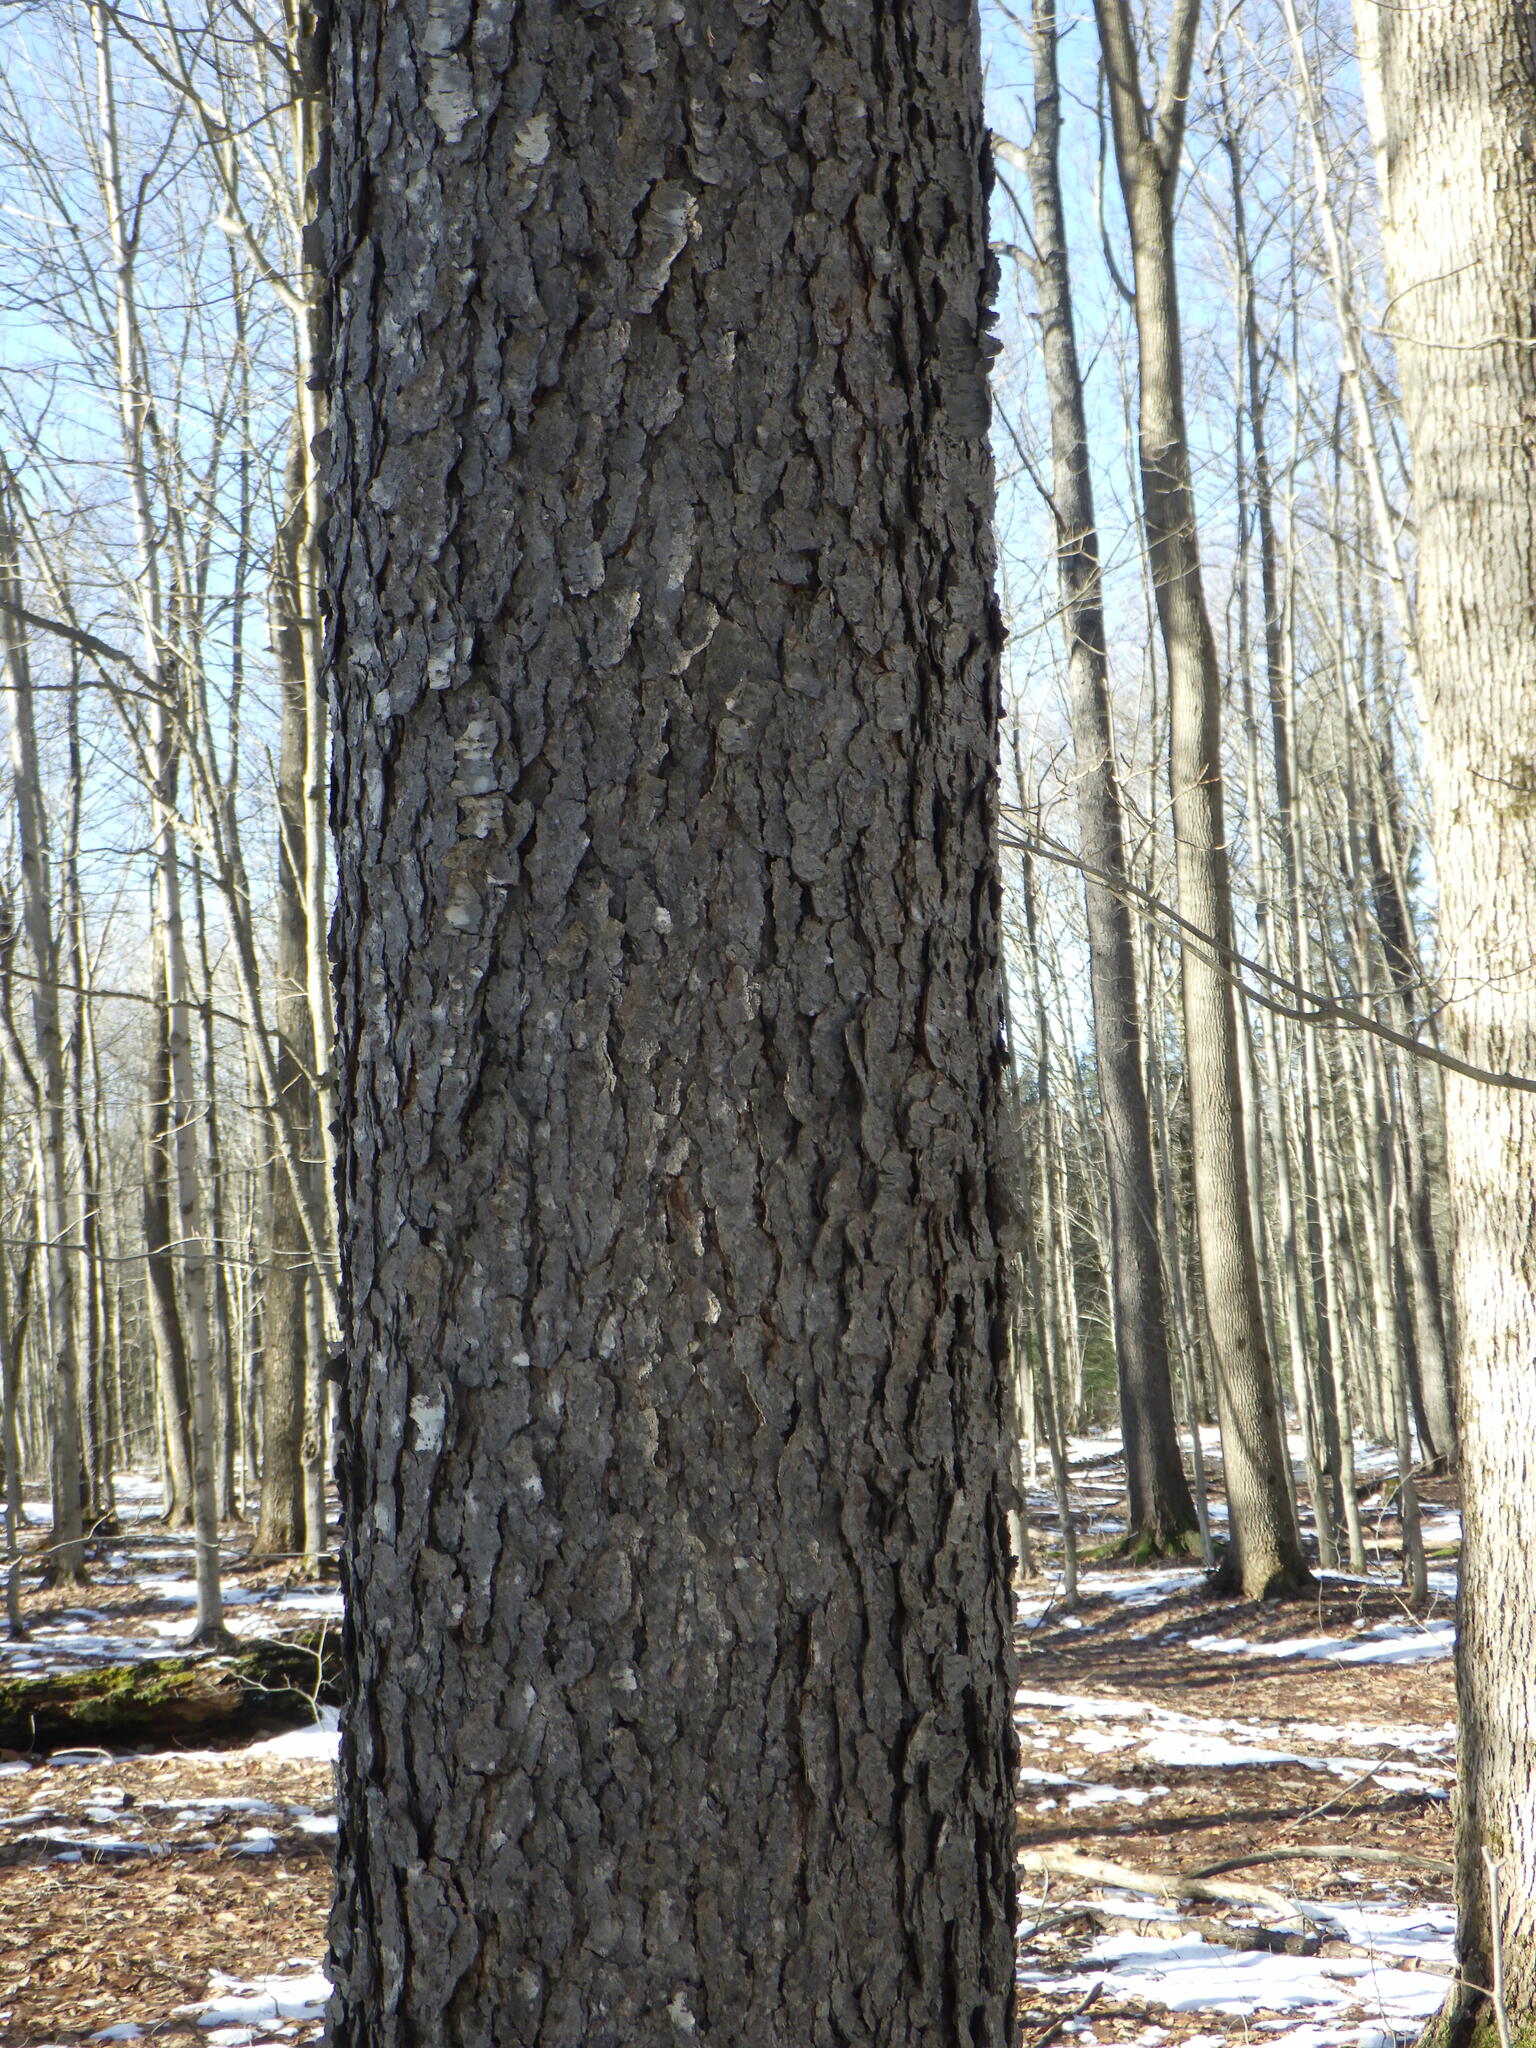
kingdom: Plantae
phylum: Tracheophyta
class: Magnoliopsida
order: Rosales
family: Rosaceae
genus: Prunus
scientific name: Prunus serotina
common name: Black cherry
